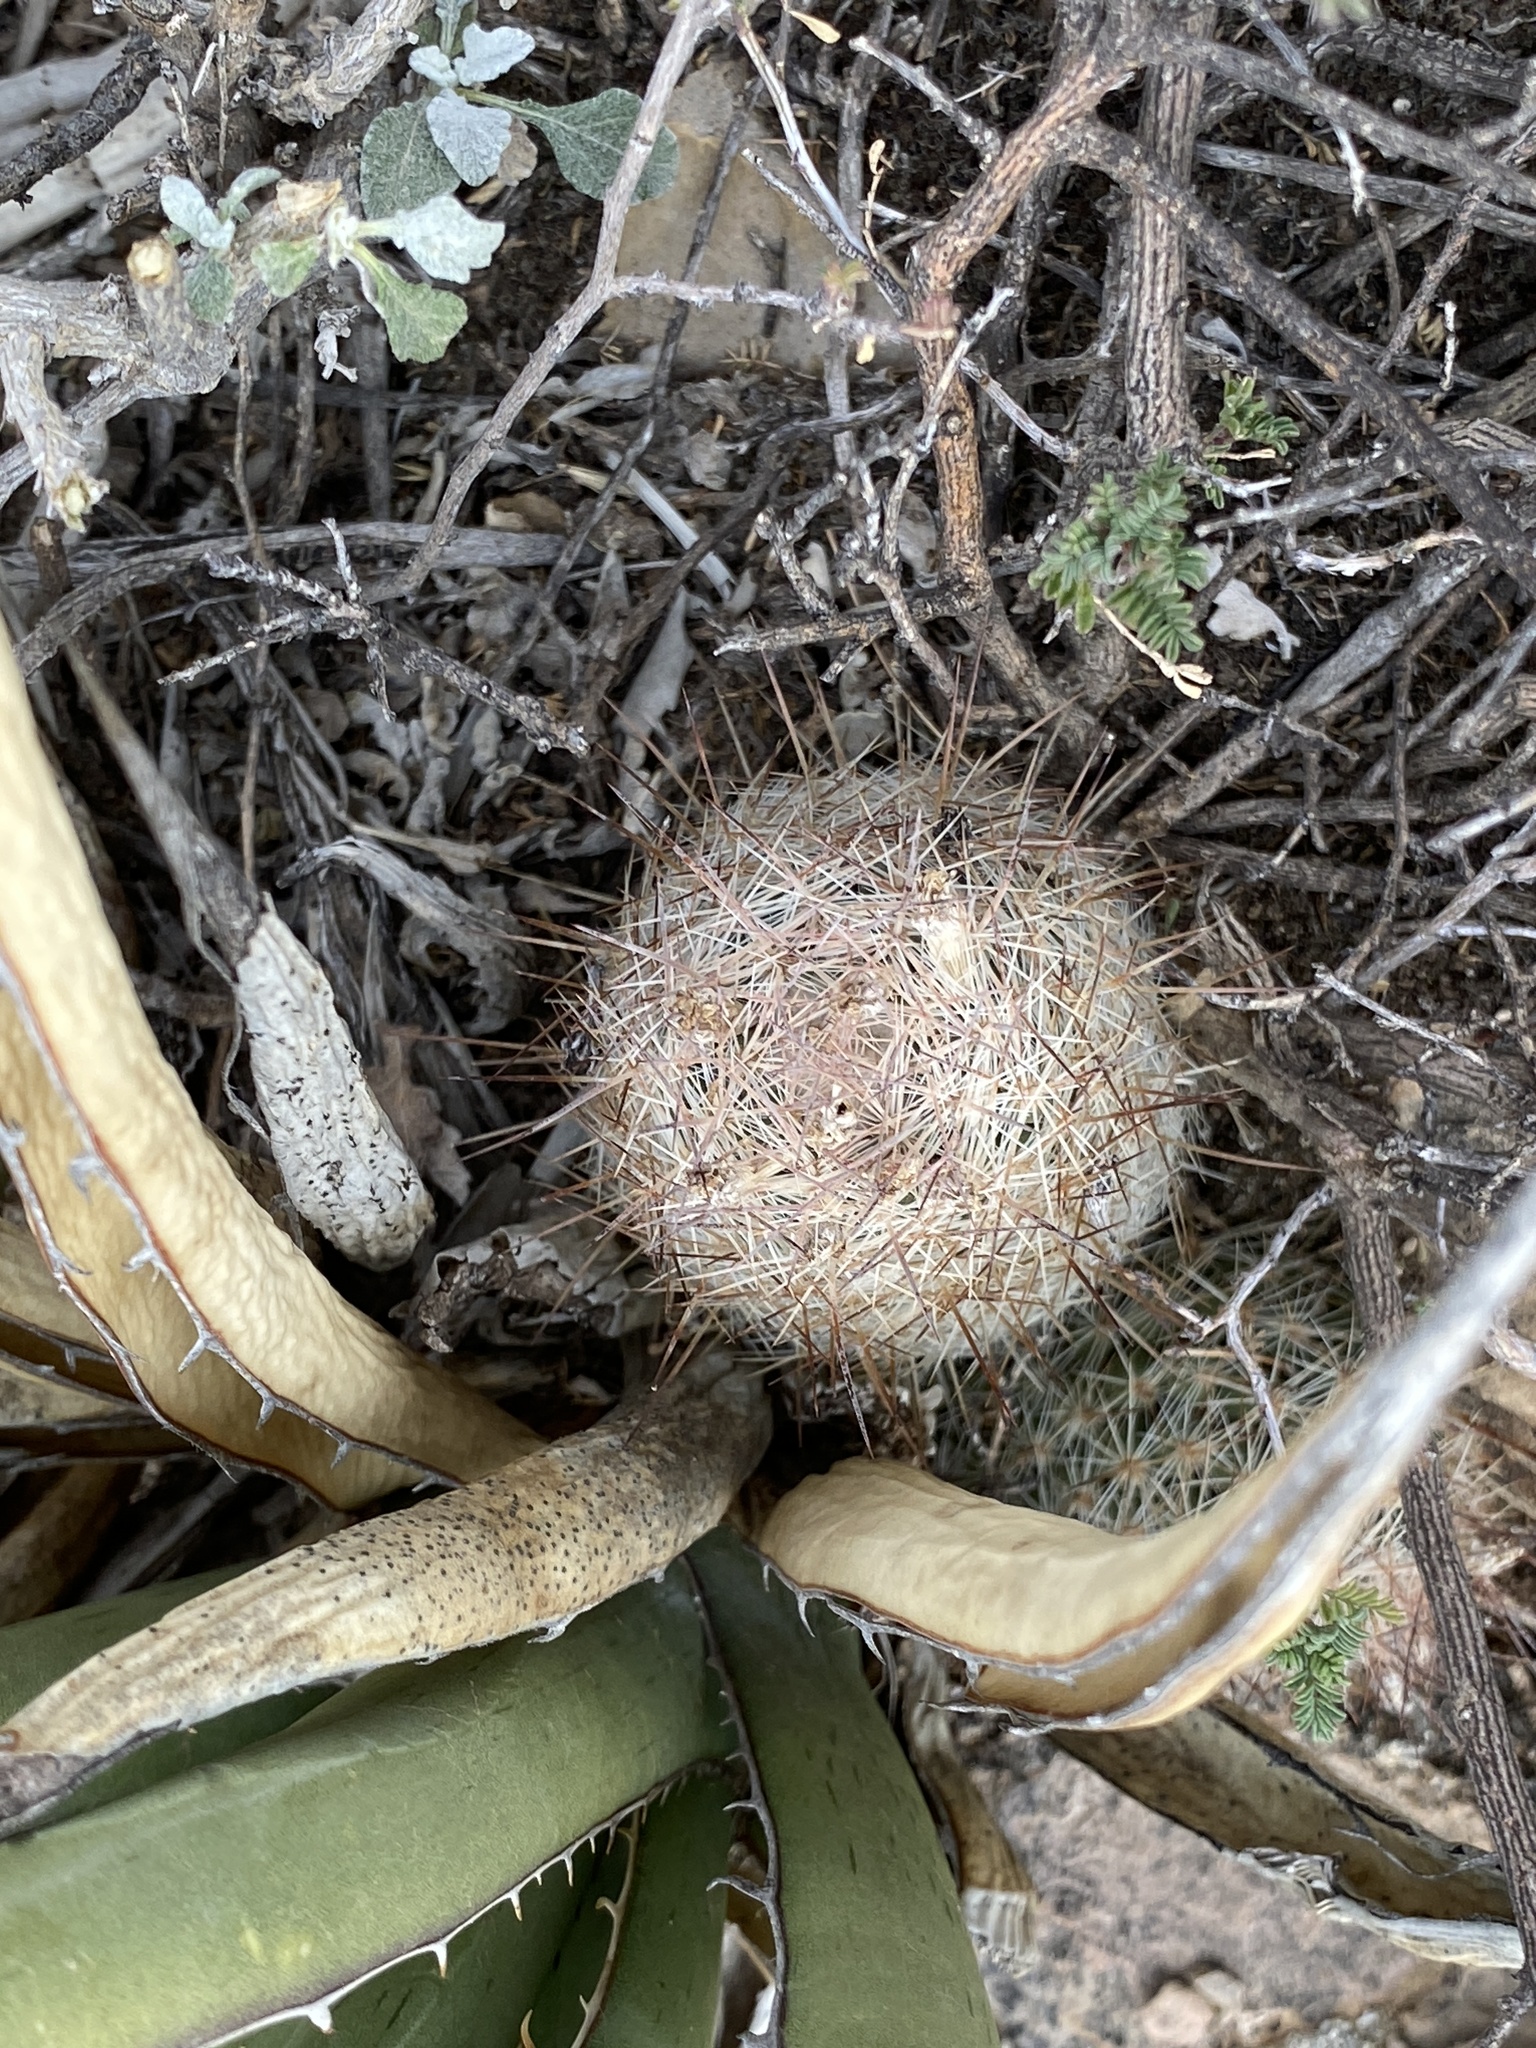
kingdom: Plantae
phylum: Tracheophyta
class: Magnoliopsida
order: Caryophyllales
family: Cactaceae
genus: Pelecyphora
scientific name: Pelecyphora tuberculosa
